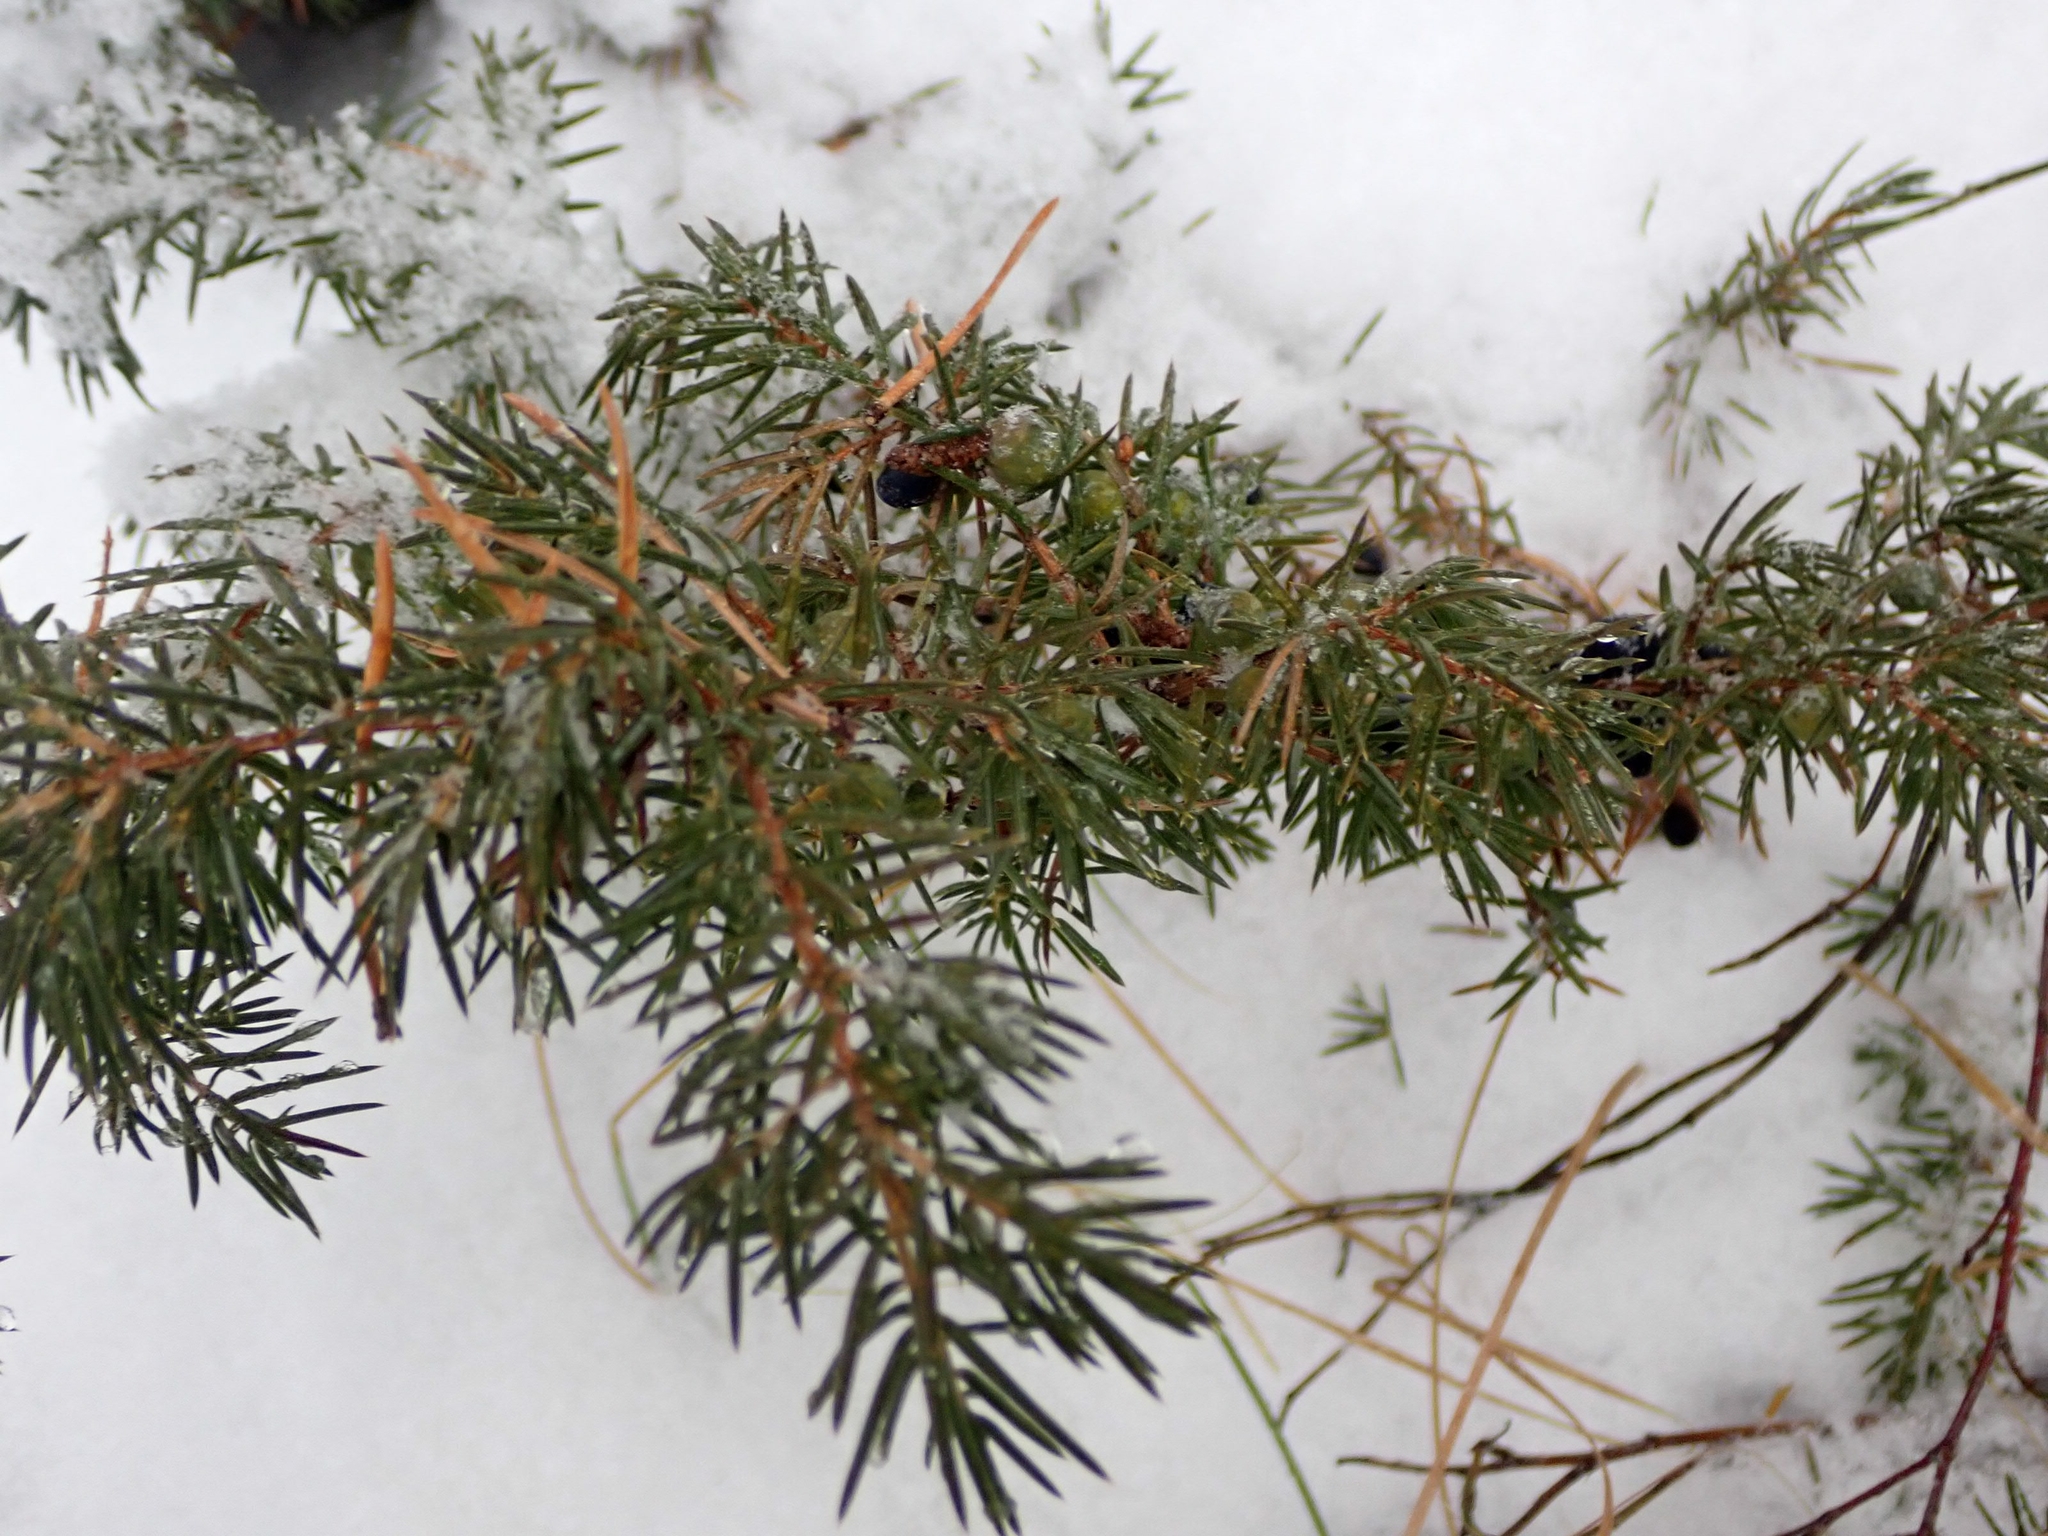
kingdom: Plantae
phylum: Tracheophyta
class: Pinopsida
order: Pinales
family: Cupressaceae
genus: Juniperus
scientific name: Juniperus communis
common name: Common juniper
